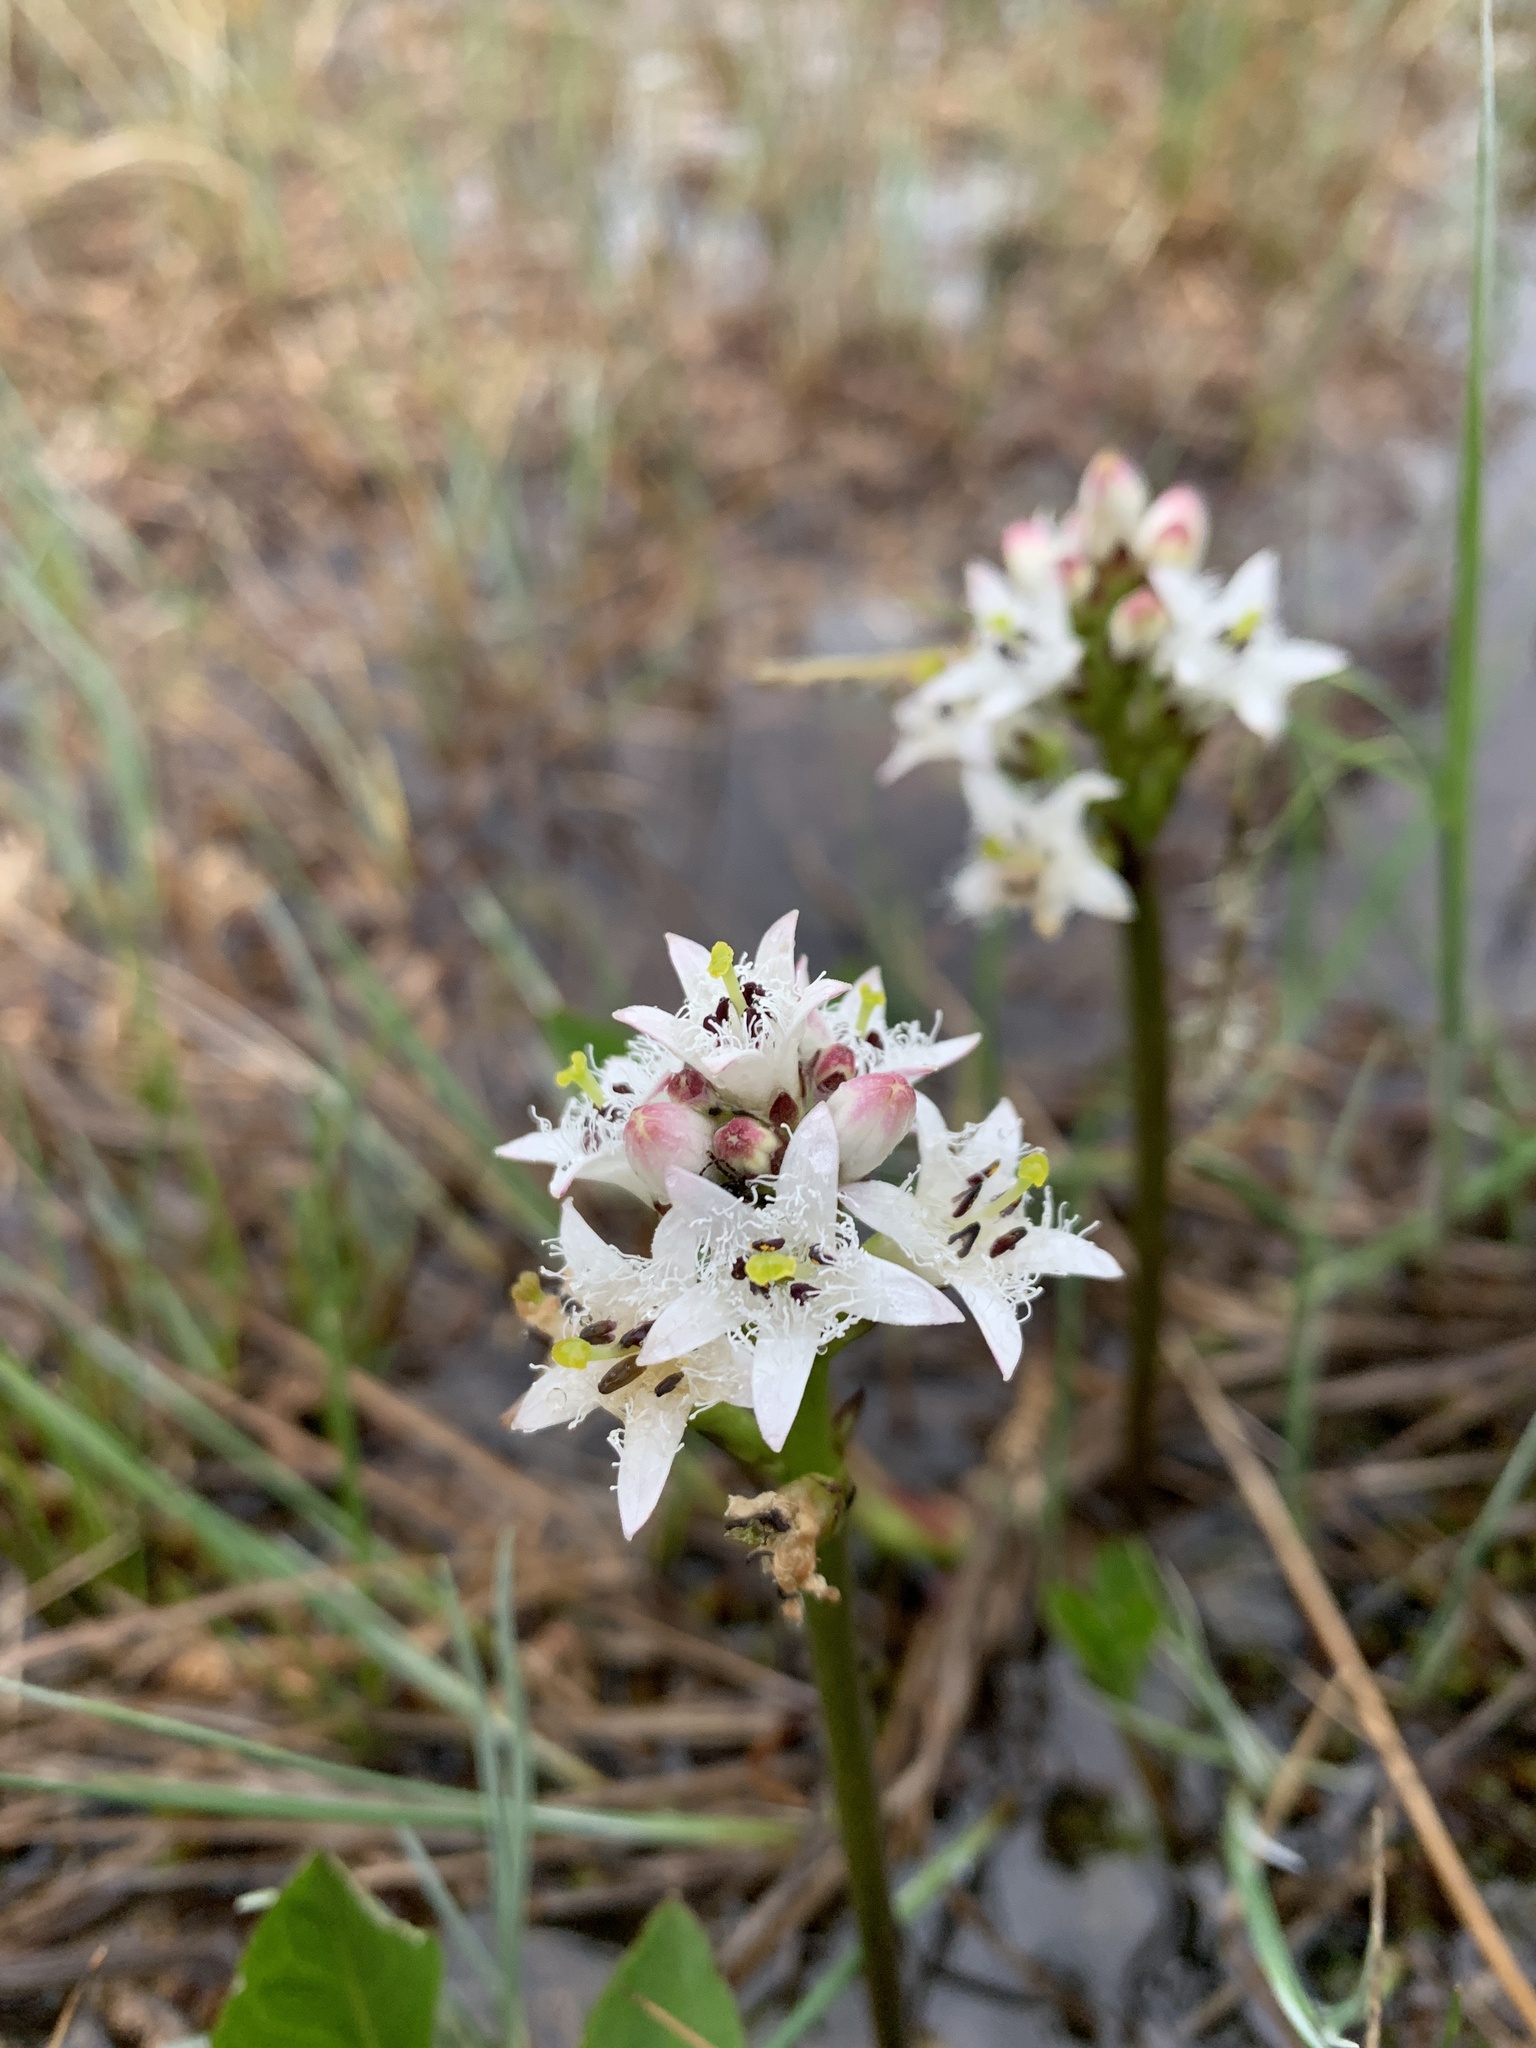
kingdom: Plantae
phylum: Tracheophyta
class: Magnoliopsida
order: Asterales
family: Menyanthaceae
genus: Menyanthes
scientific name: Menyanthes trifoliata
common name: Bogbean
